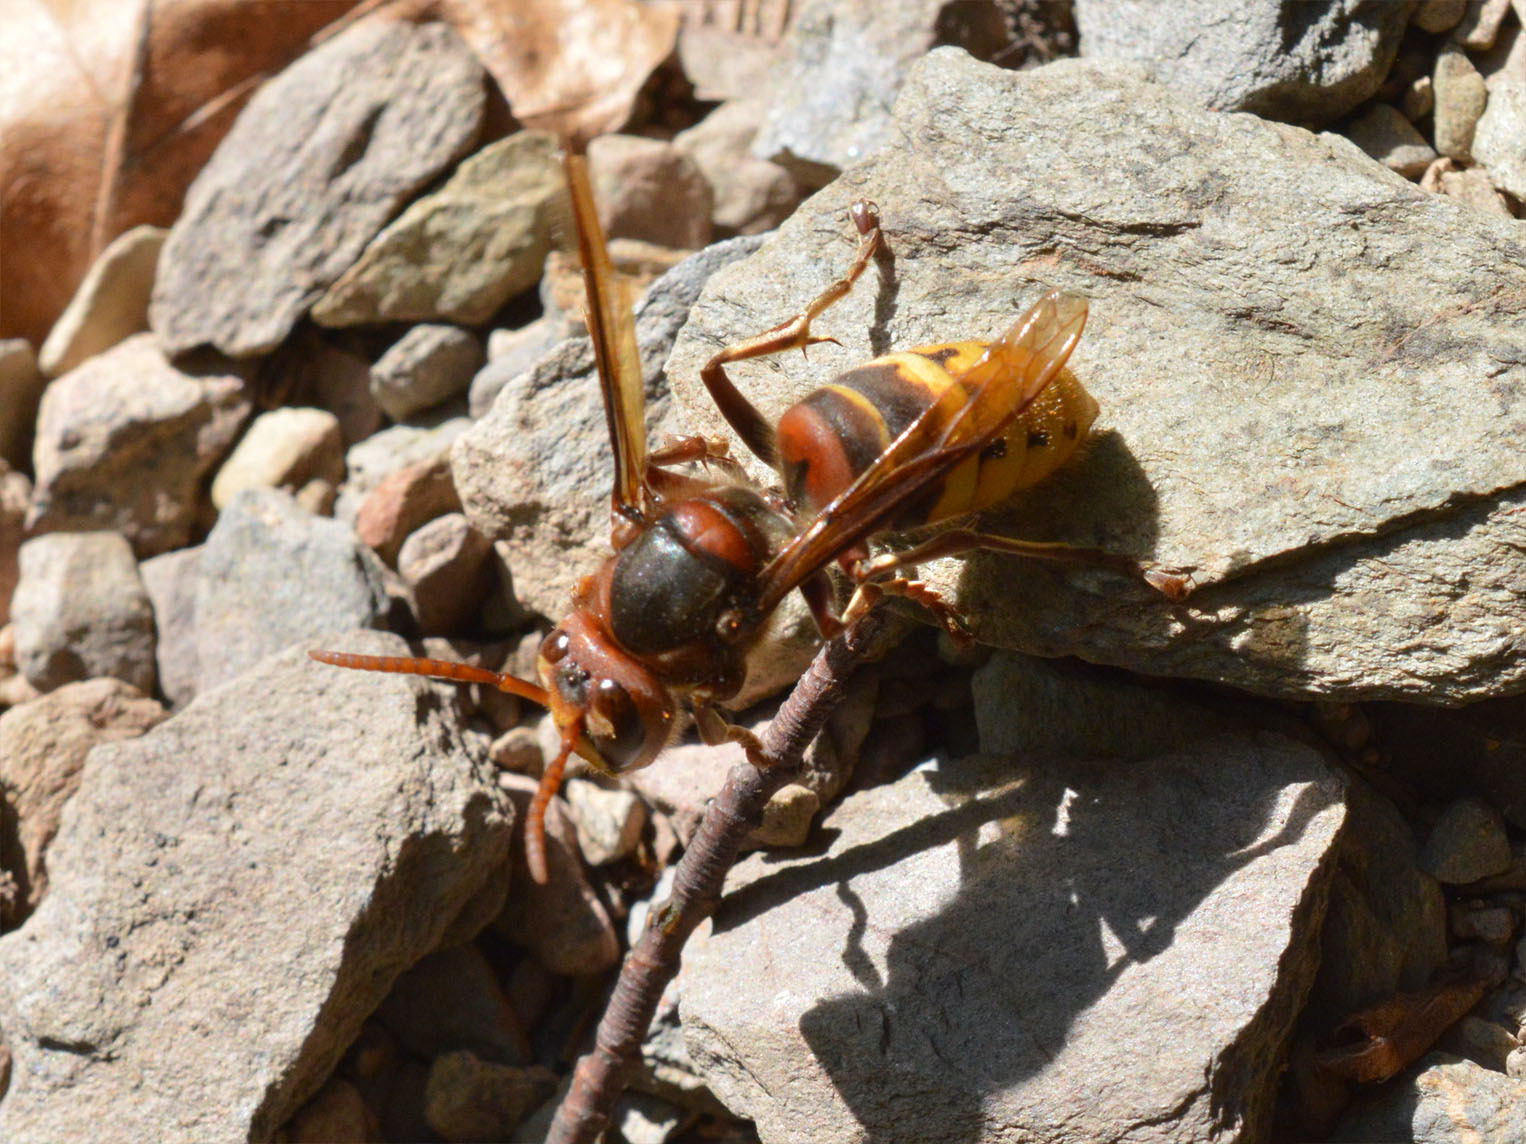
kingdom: Animalia
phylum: Arthropoda
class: Insecta
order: Hymenoptera
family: Vespidae
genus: Vespa
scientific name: Vespa crabro
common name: Hornet
